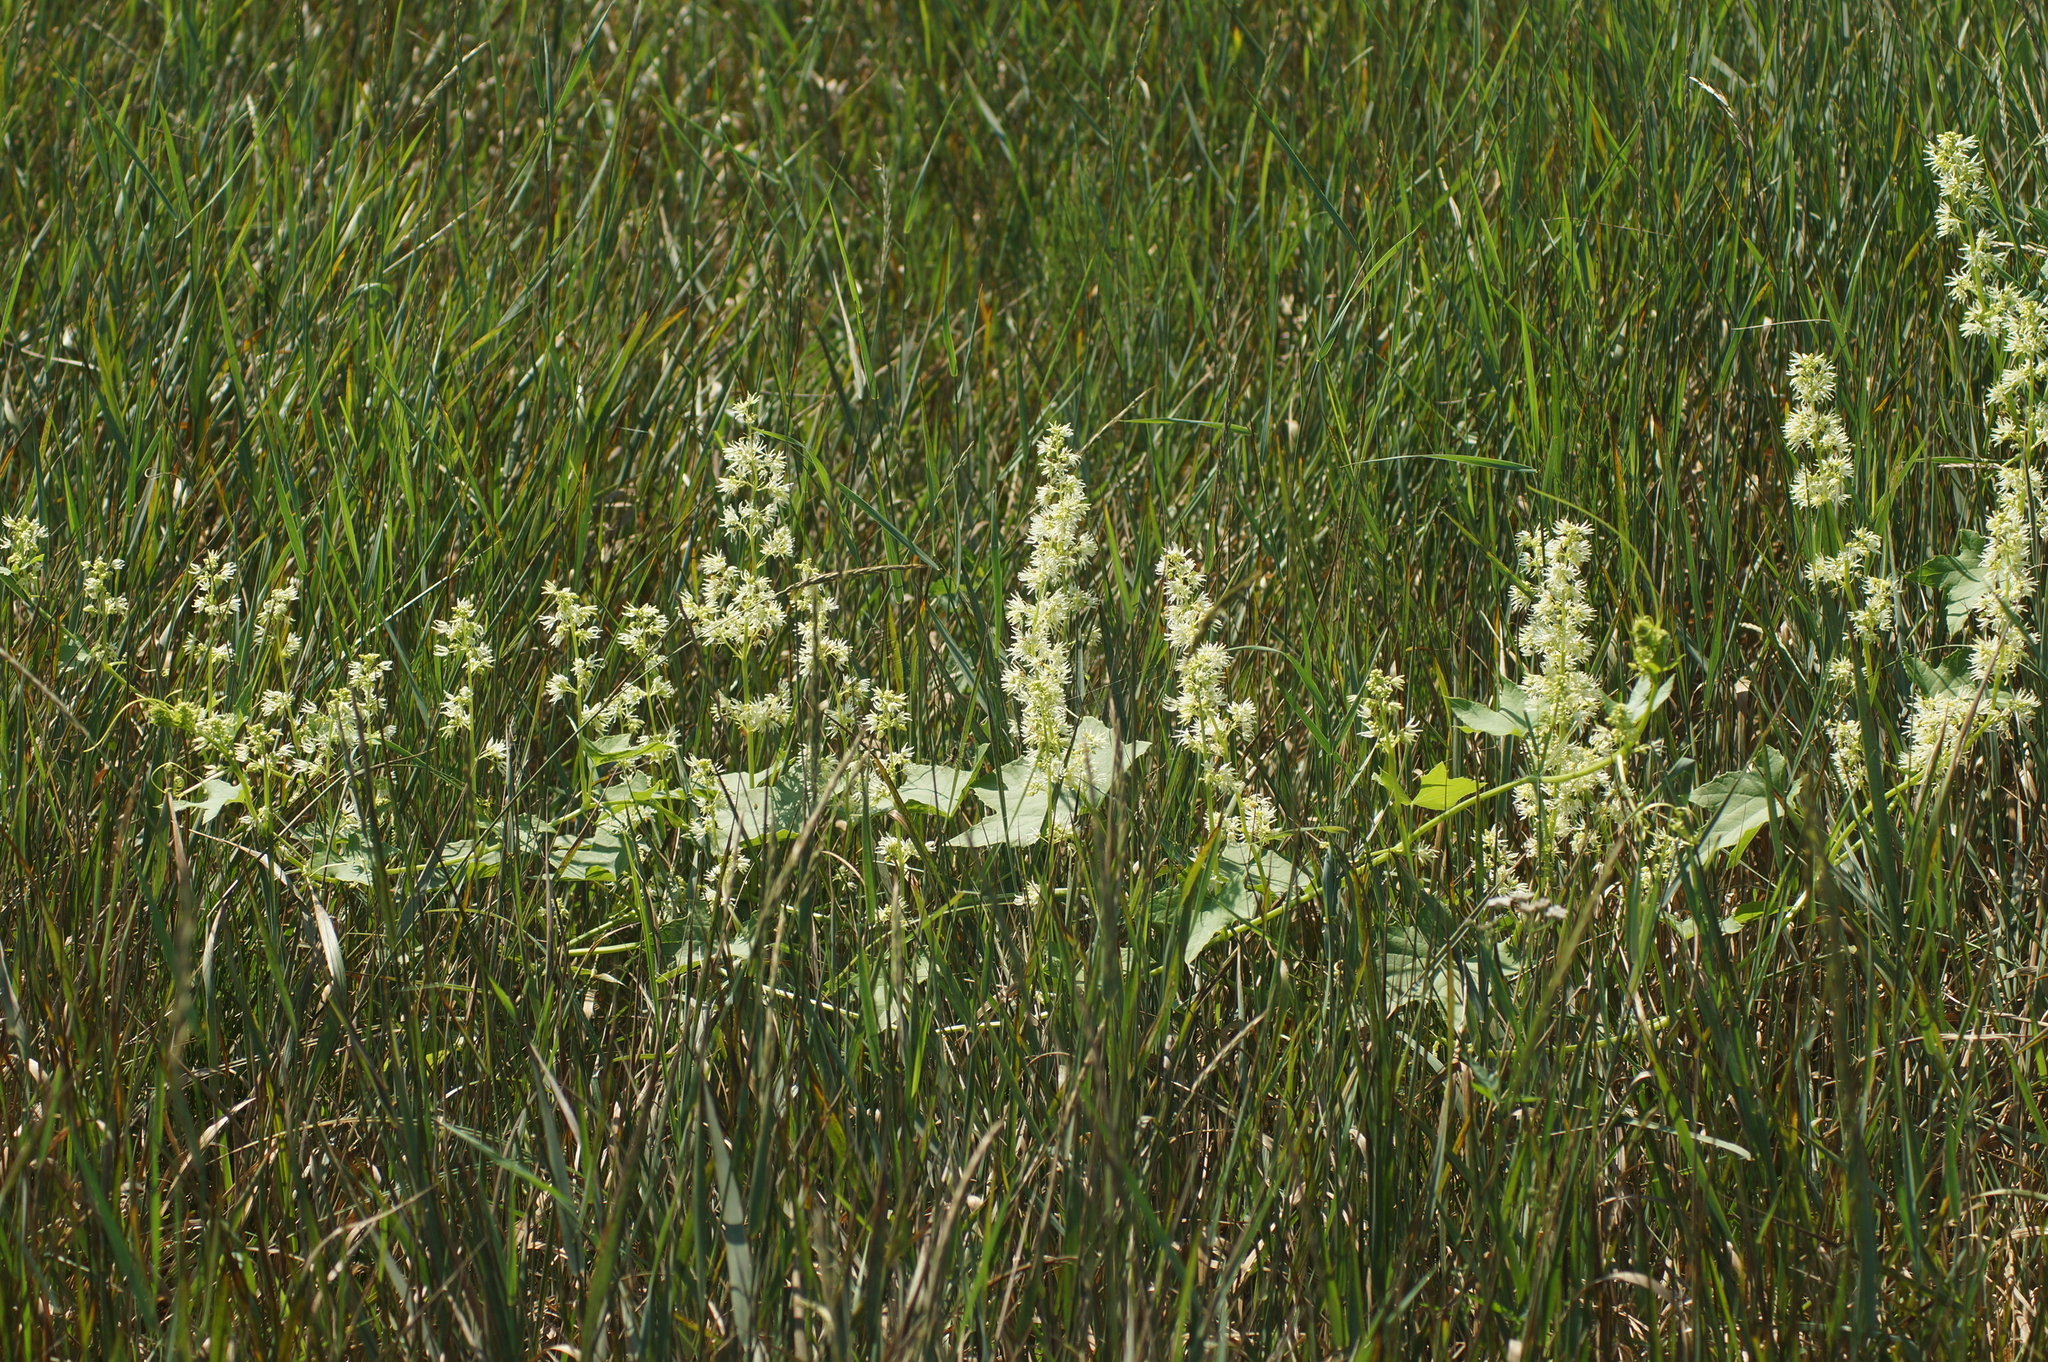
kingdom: Plantae
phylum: Tracheophyta
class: Magnoliopsida
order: Cucurbitales
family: Cucurbitaceae
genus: Echinocystis
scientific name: Echinocystis lobata
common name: Wild cucumber
